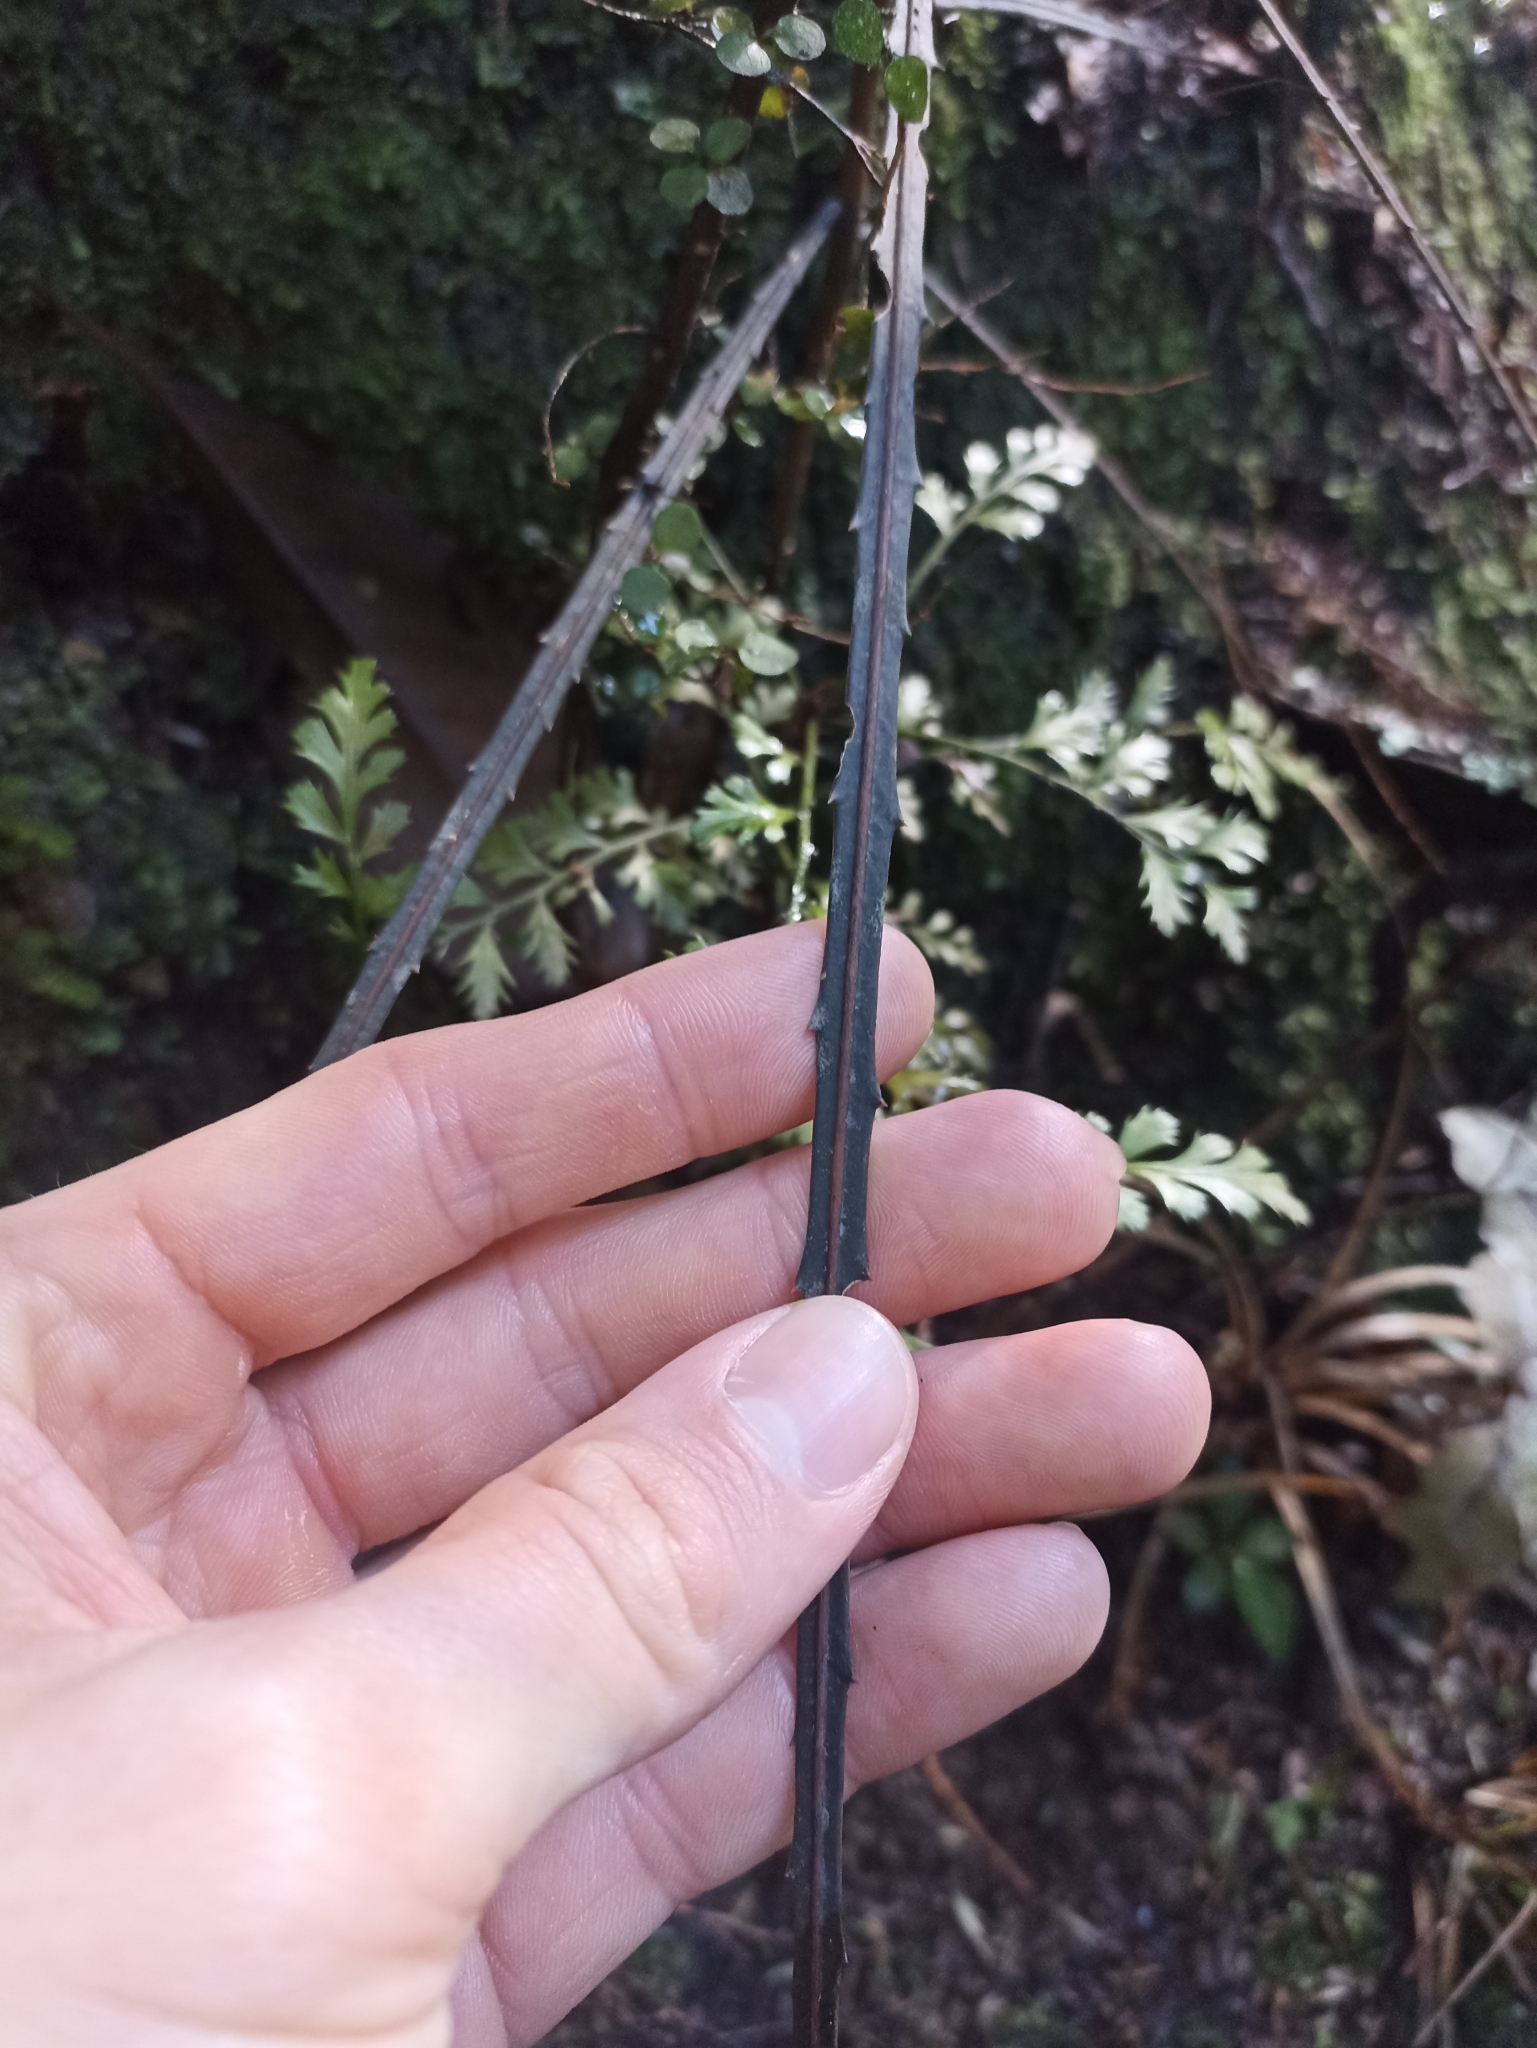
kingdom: Plantae
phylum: Tracheophyta
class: Magnoliopsida
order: Apiales
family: Araliaceae
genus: Pseudopanax
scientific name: Pseudopanax crassifolius
